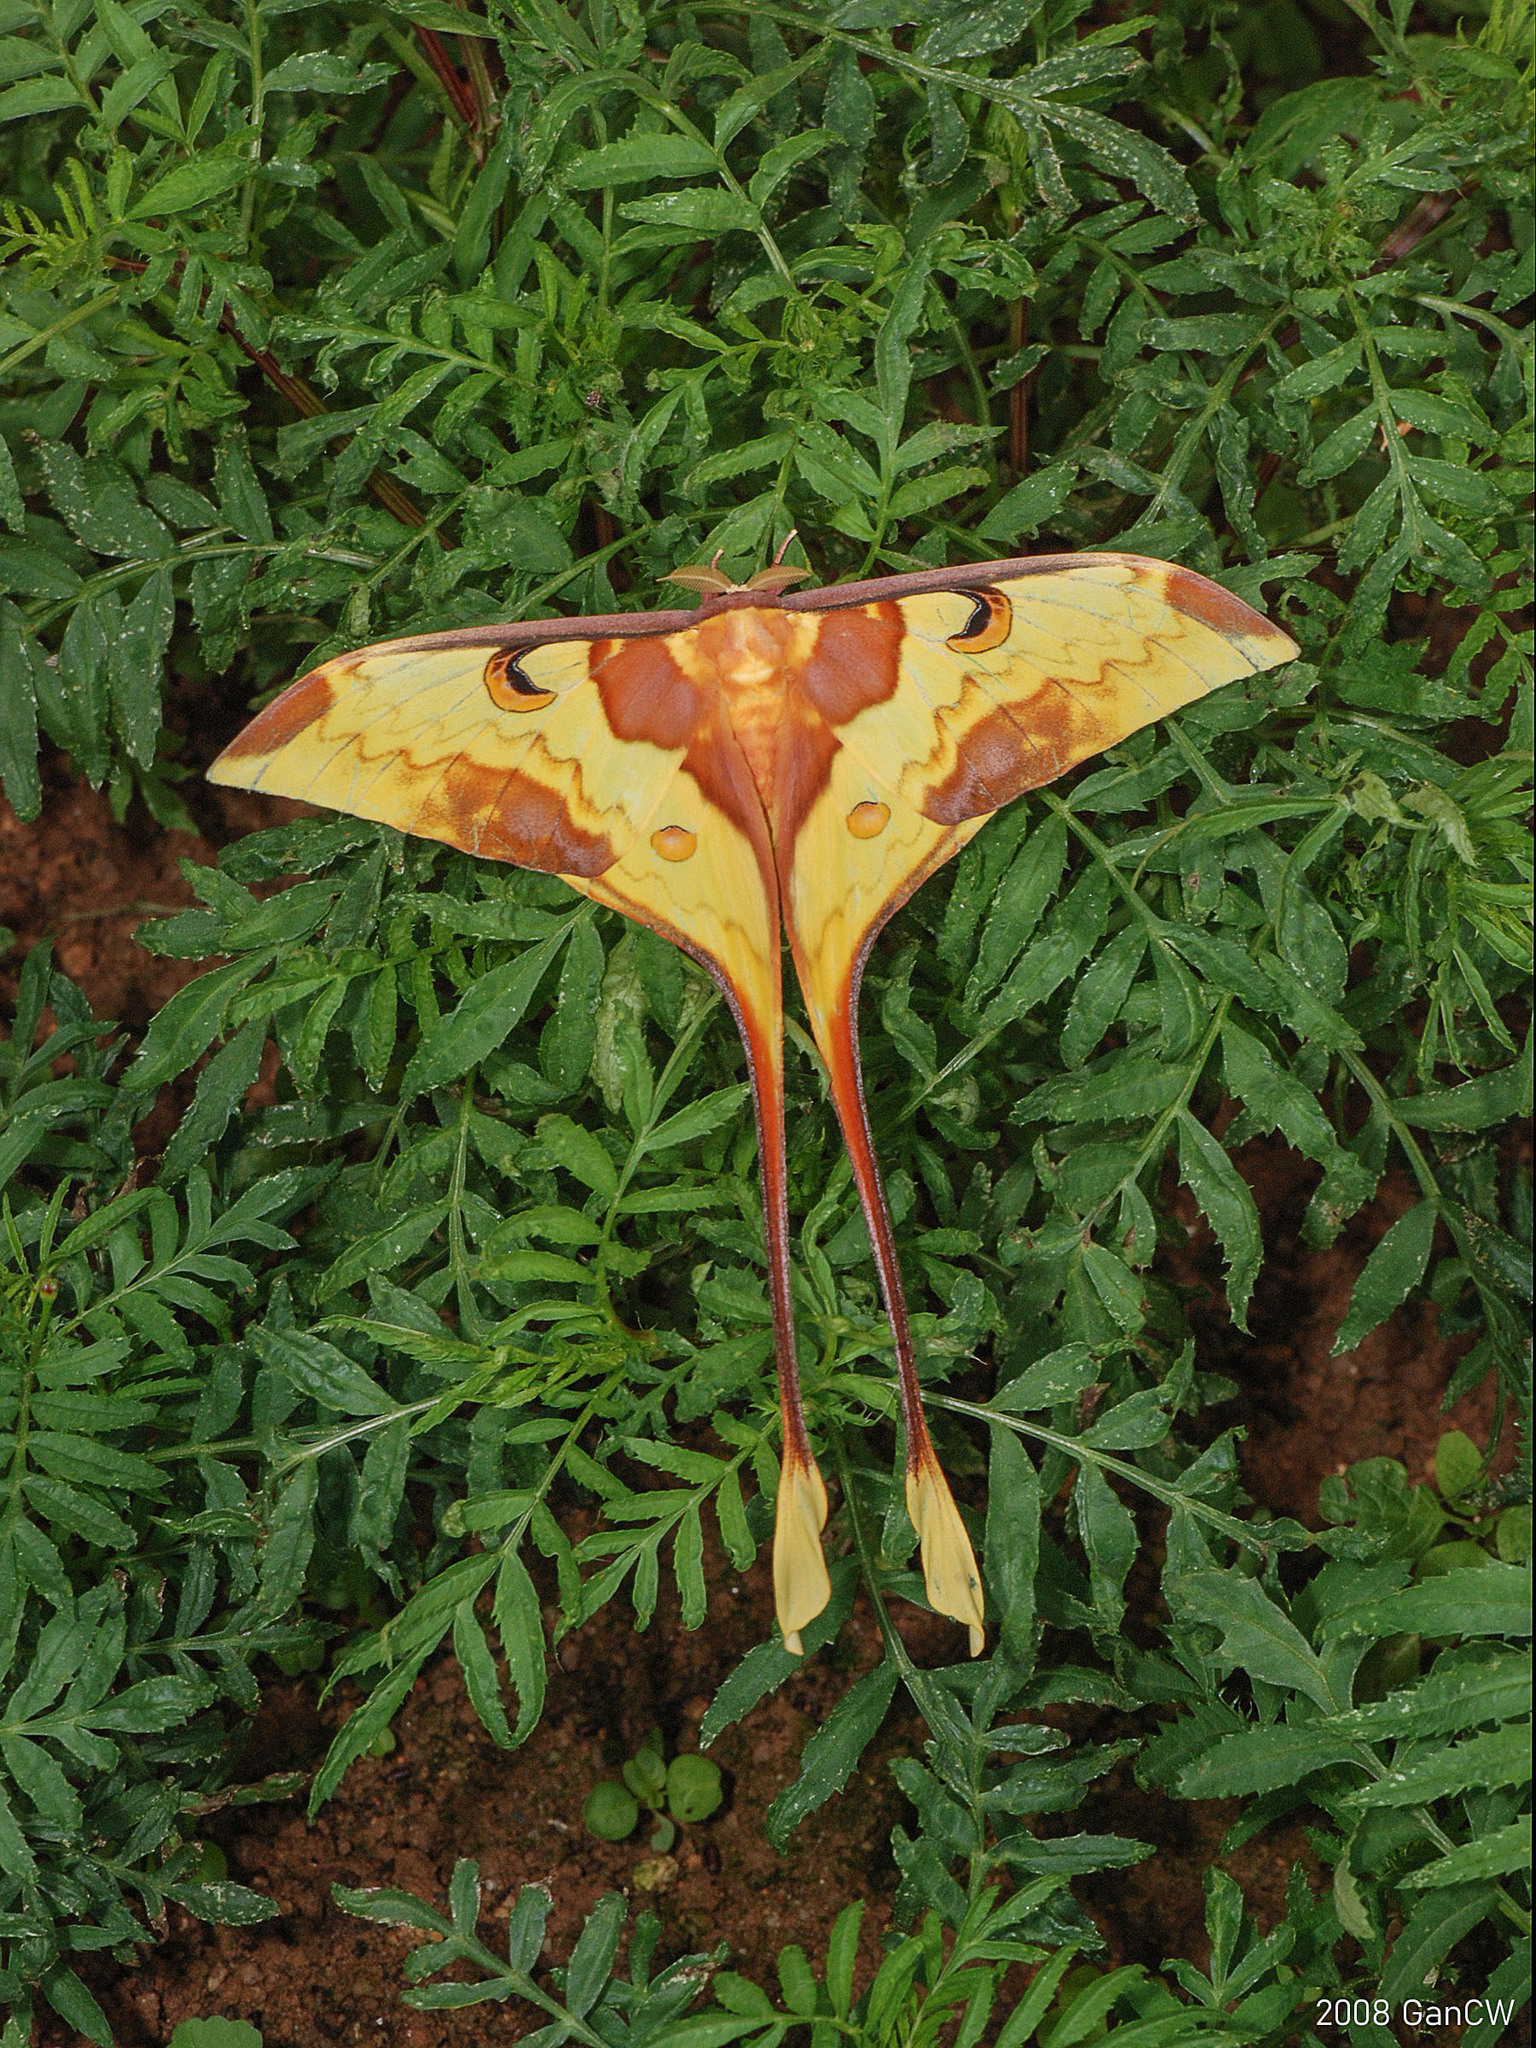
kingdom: Animalia
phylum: Arthropoda
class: Insecta
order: Lepidoptera
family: Saturniidae
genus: Actias
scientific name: Actias maenas
